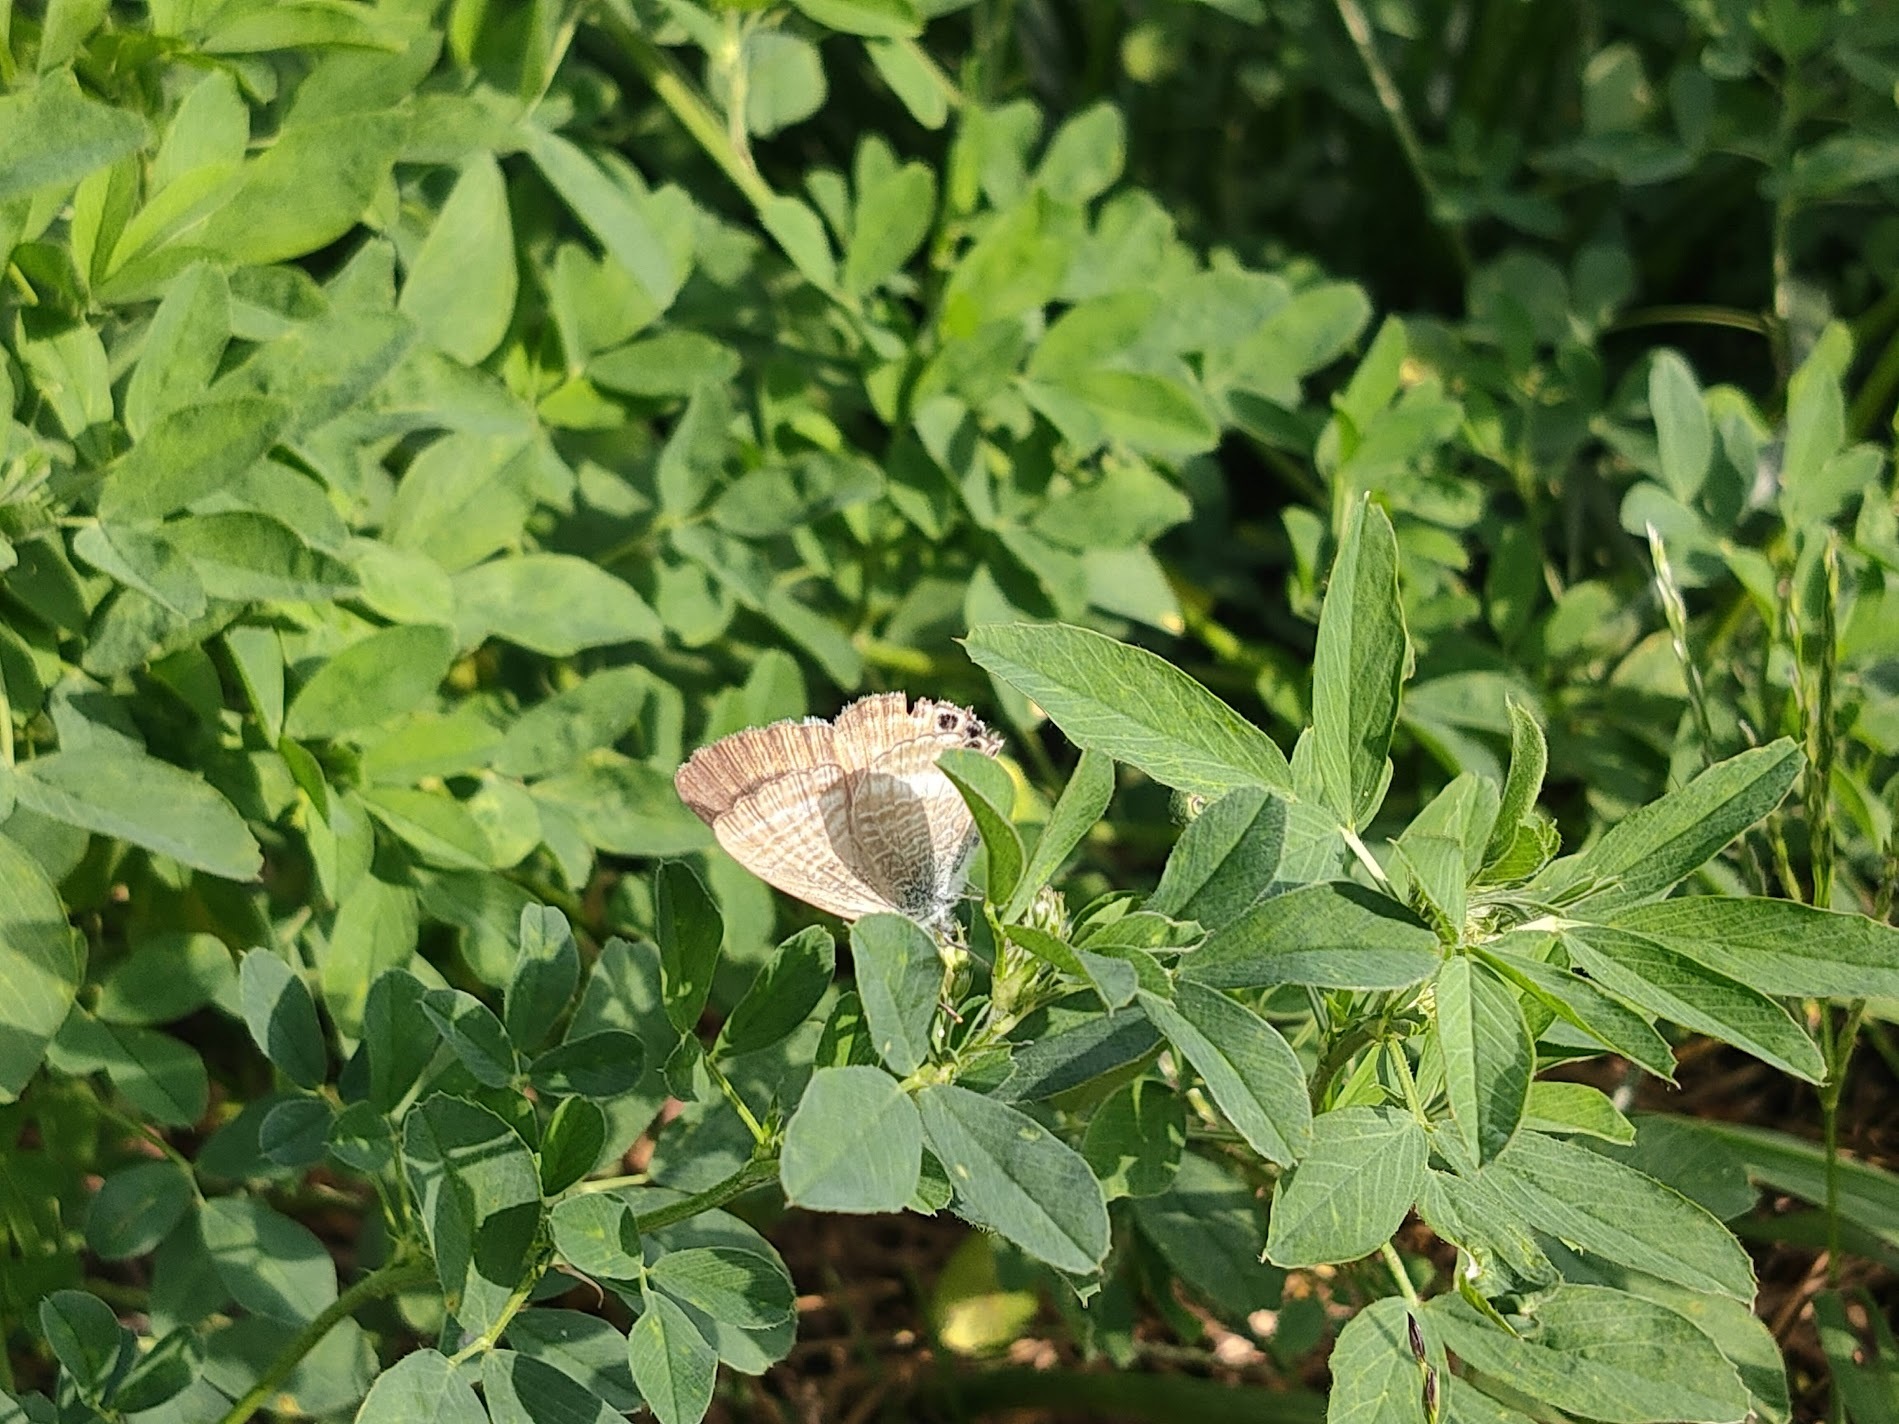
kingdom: Animalia
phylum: Arthropoda
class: Insecta
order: Lepidoptera
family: Lycaenidae
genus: Lampides
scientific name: Lampides boeticus
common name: Long-tailed blue
